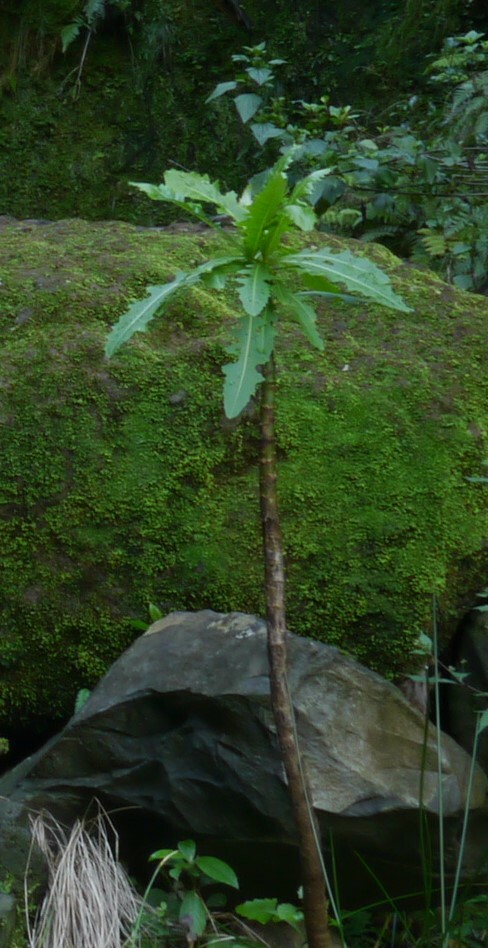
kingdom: Plantae
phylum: Tracheophyta
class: Magnoliopsida
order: Asterales
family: Asteraceae
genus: Sonchus
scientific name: Sonchus fruticosus
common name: Shrubby sow-thistle
